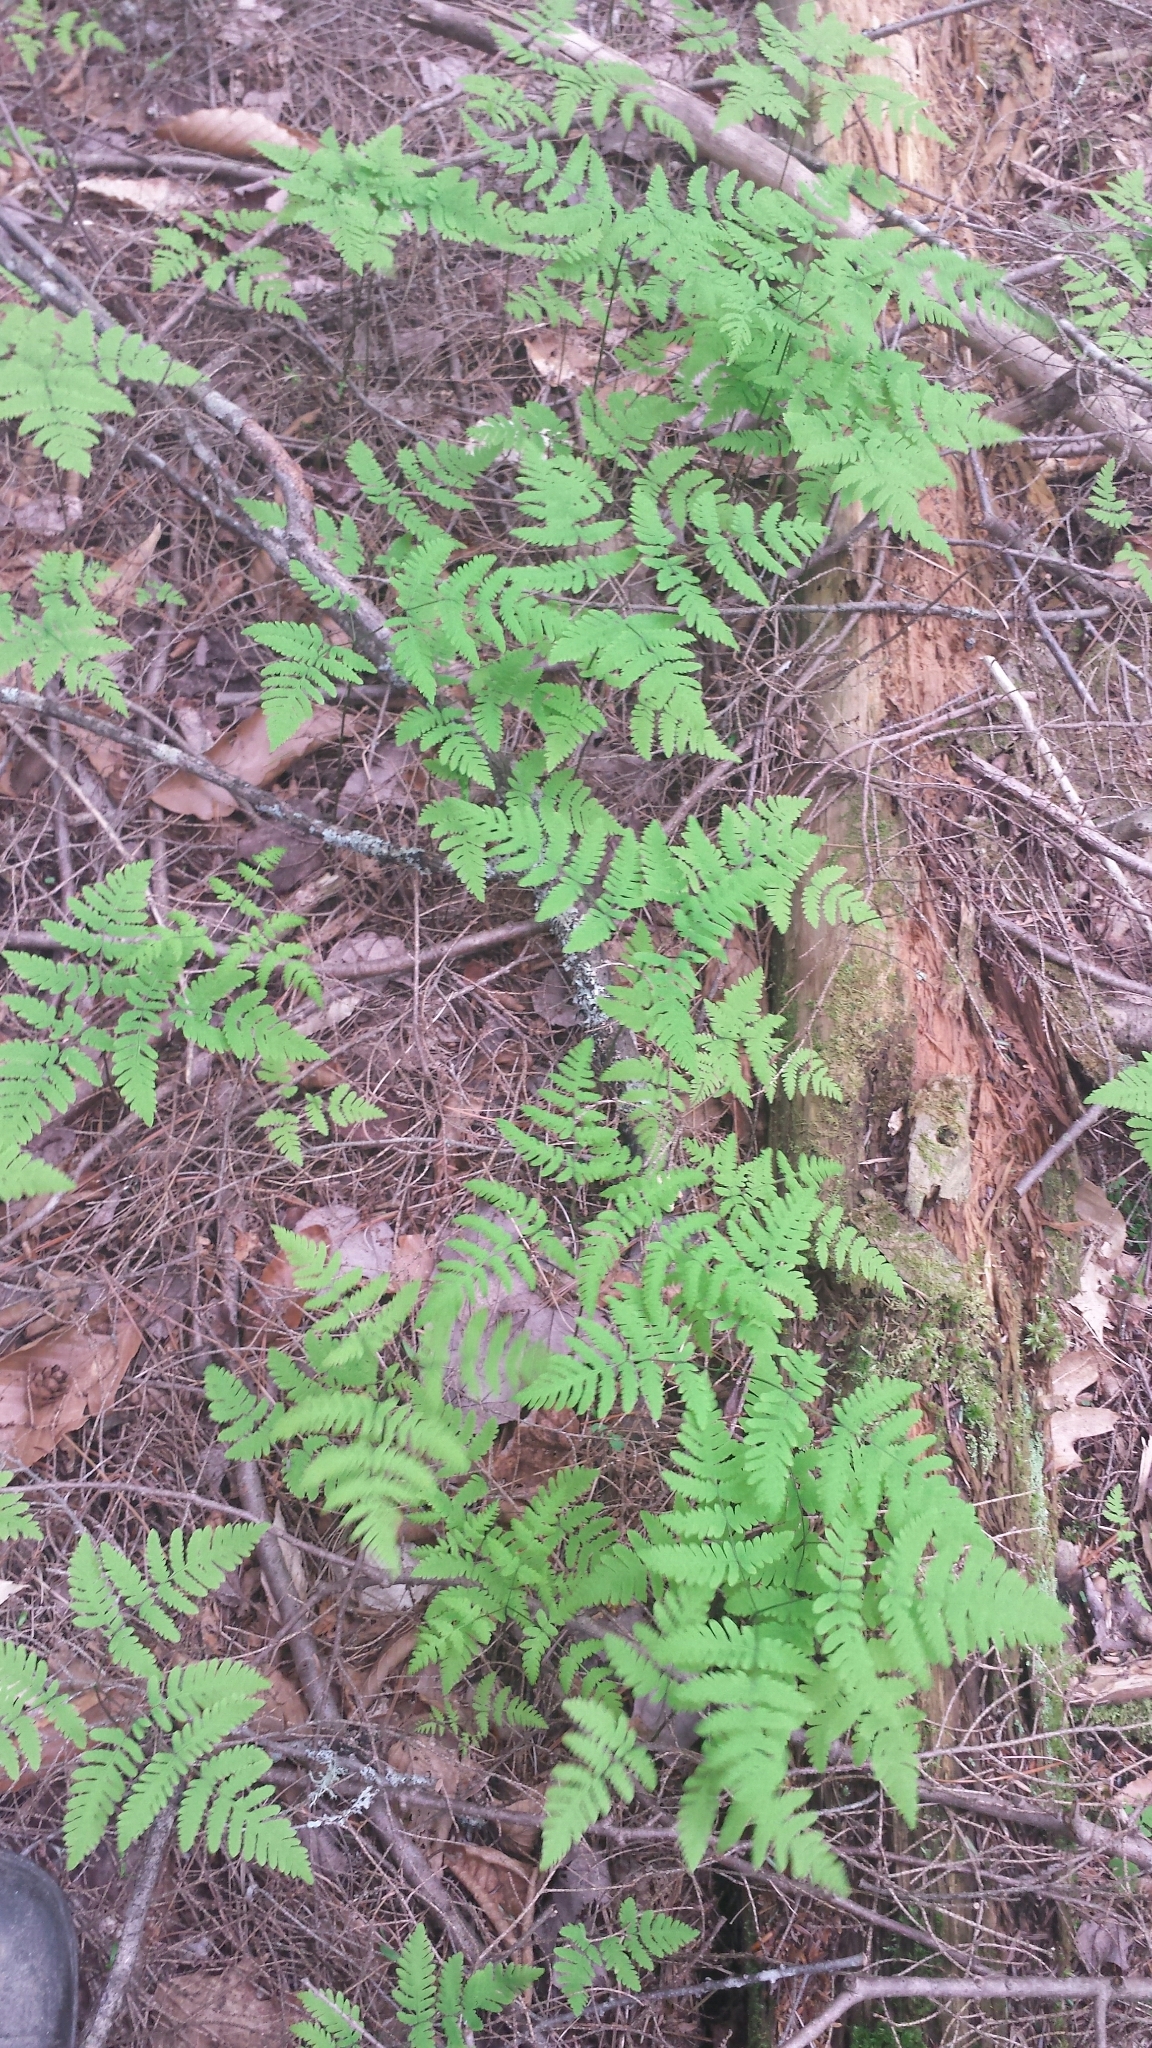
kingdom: Plantae
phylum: Tracheophyta
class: Polypodiopsida
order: Polypodiales
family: Cystopteridaceae
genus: Gymnocarpium
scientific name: Gymnocarpium dryopteris
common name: Oak fern
